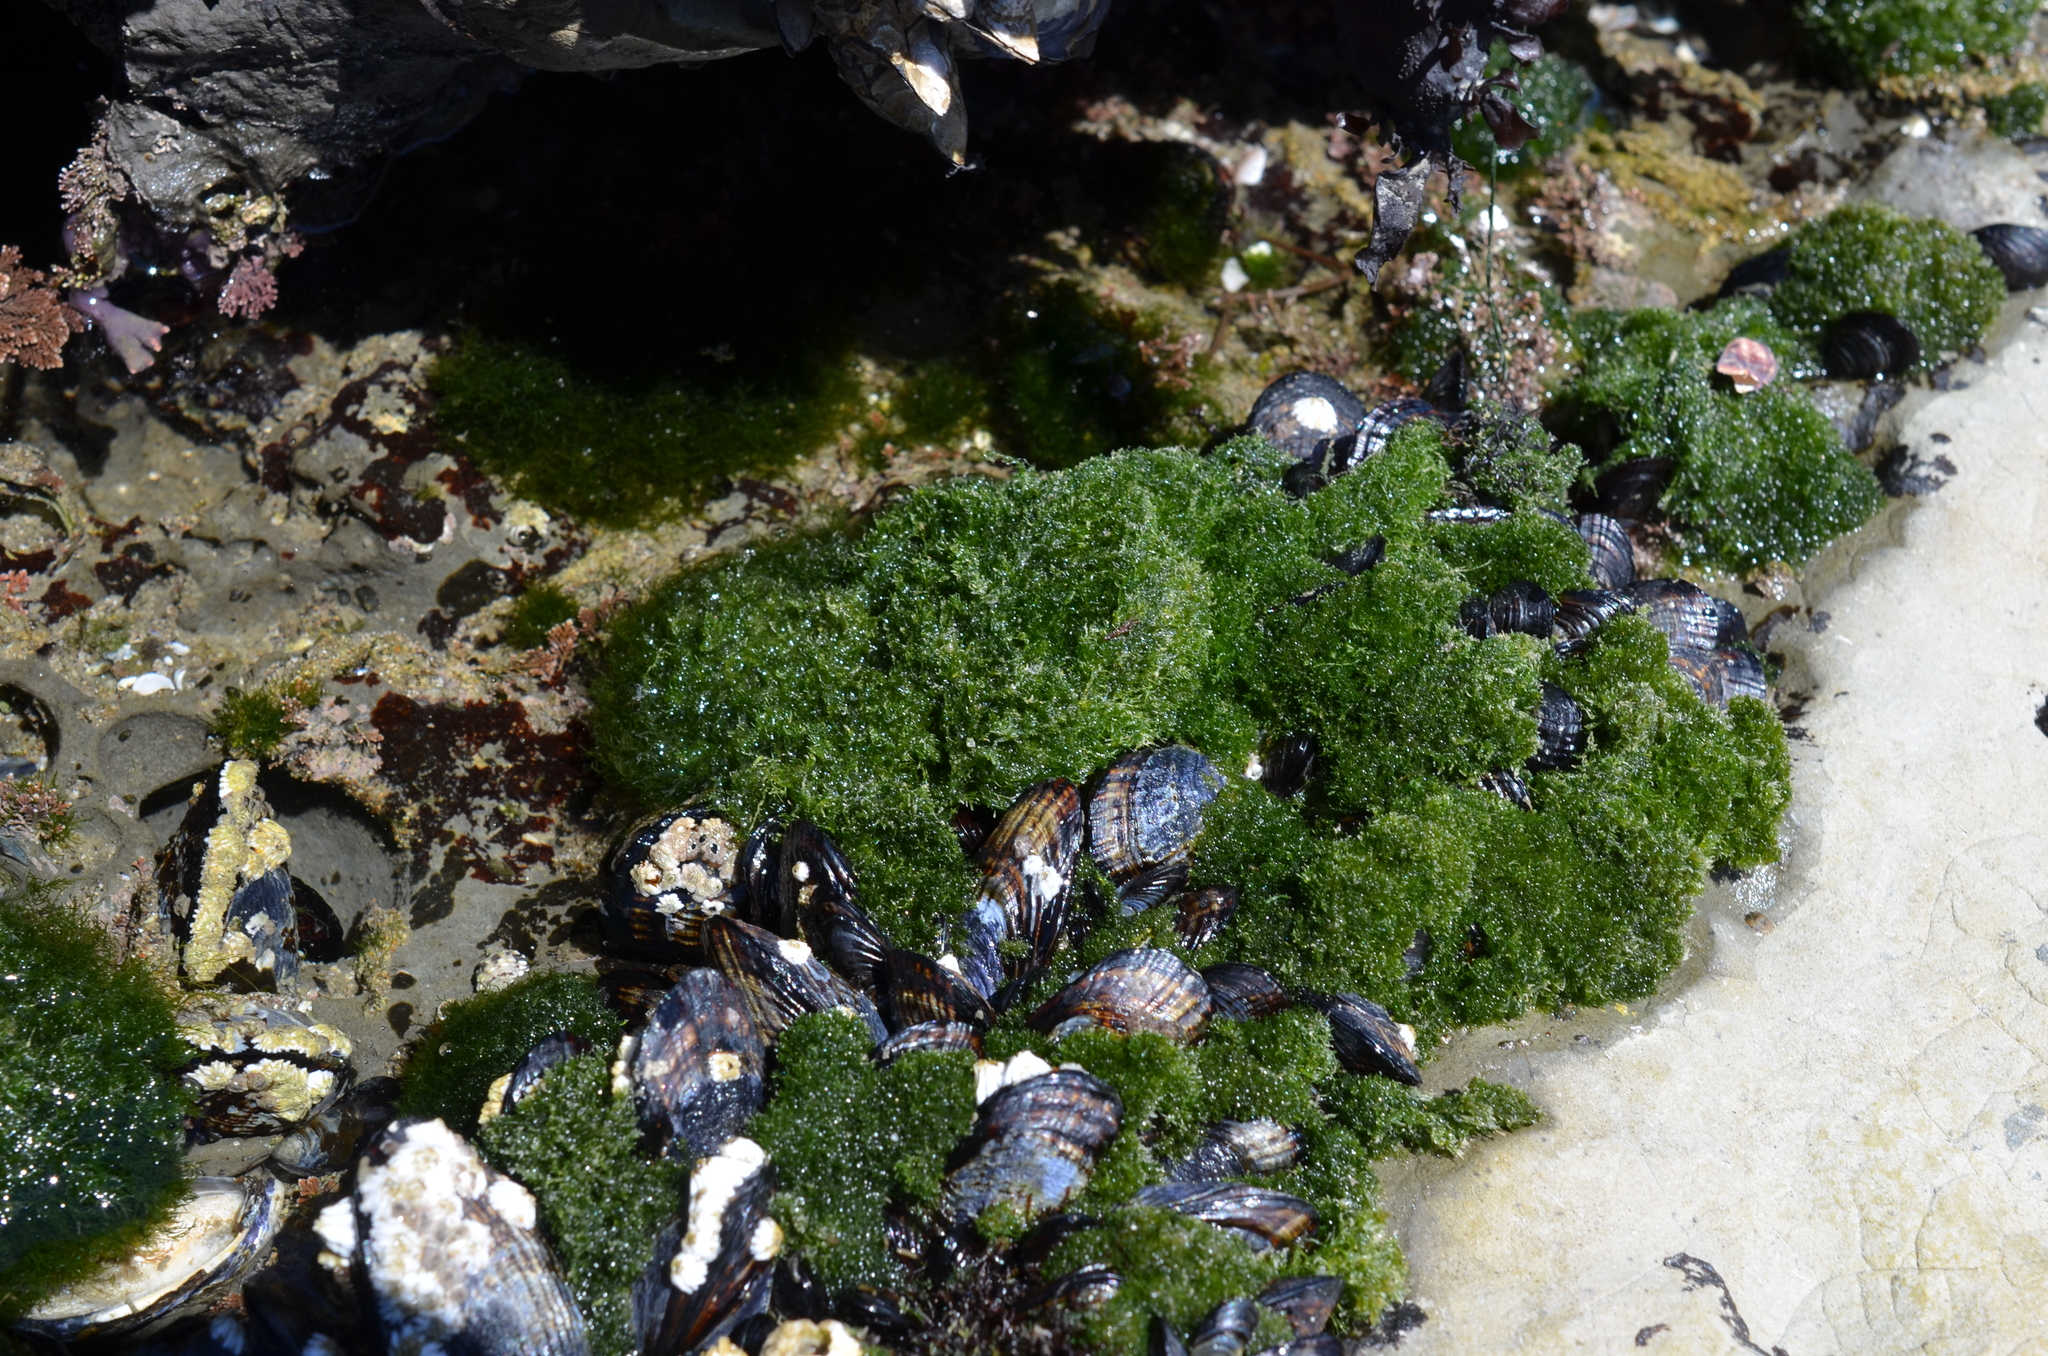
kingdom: Plantae
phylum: Chlorophyta
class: Ulvophyceae
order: Cladophorales
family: Cladophoraceae
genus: Cladophora
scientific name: Cladophora columbiana
